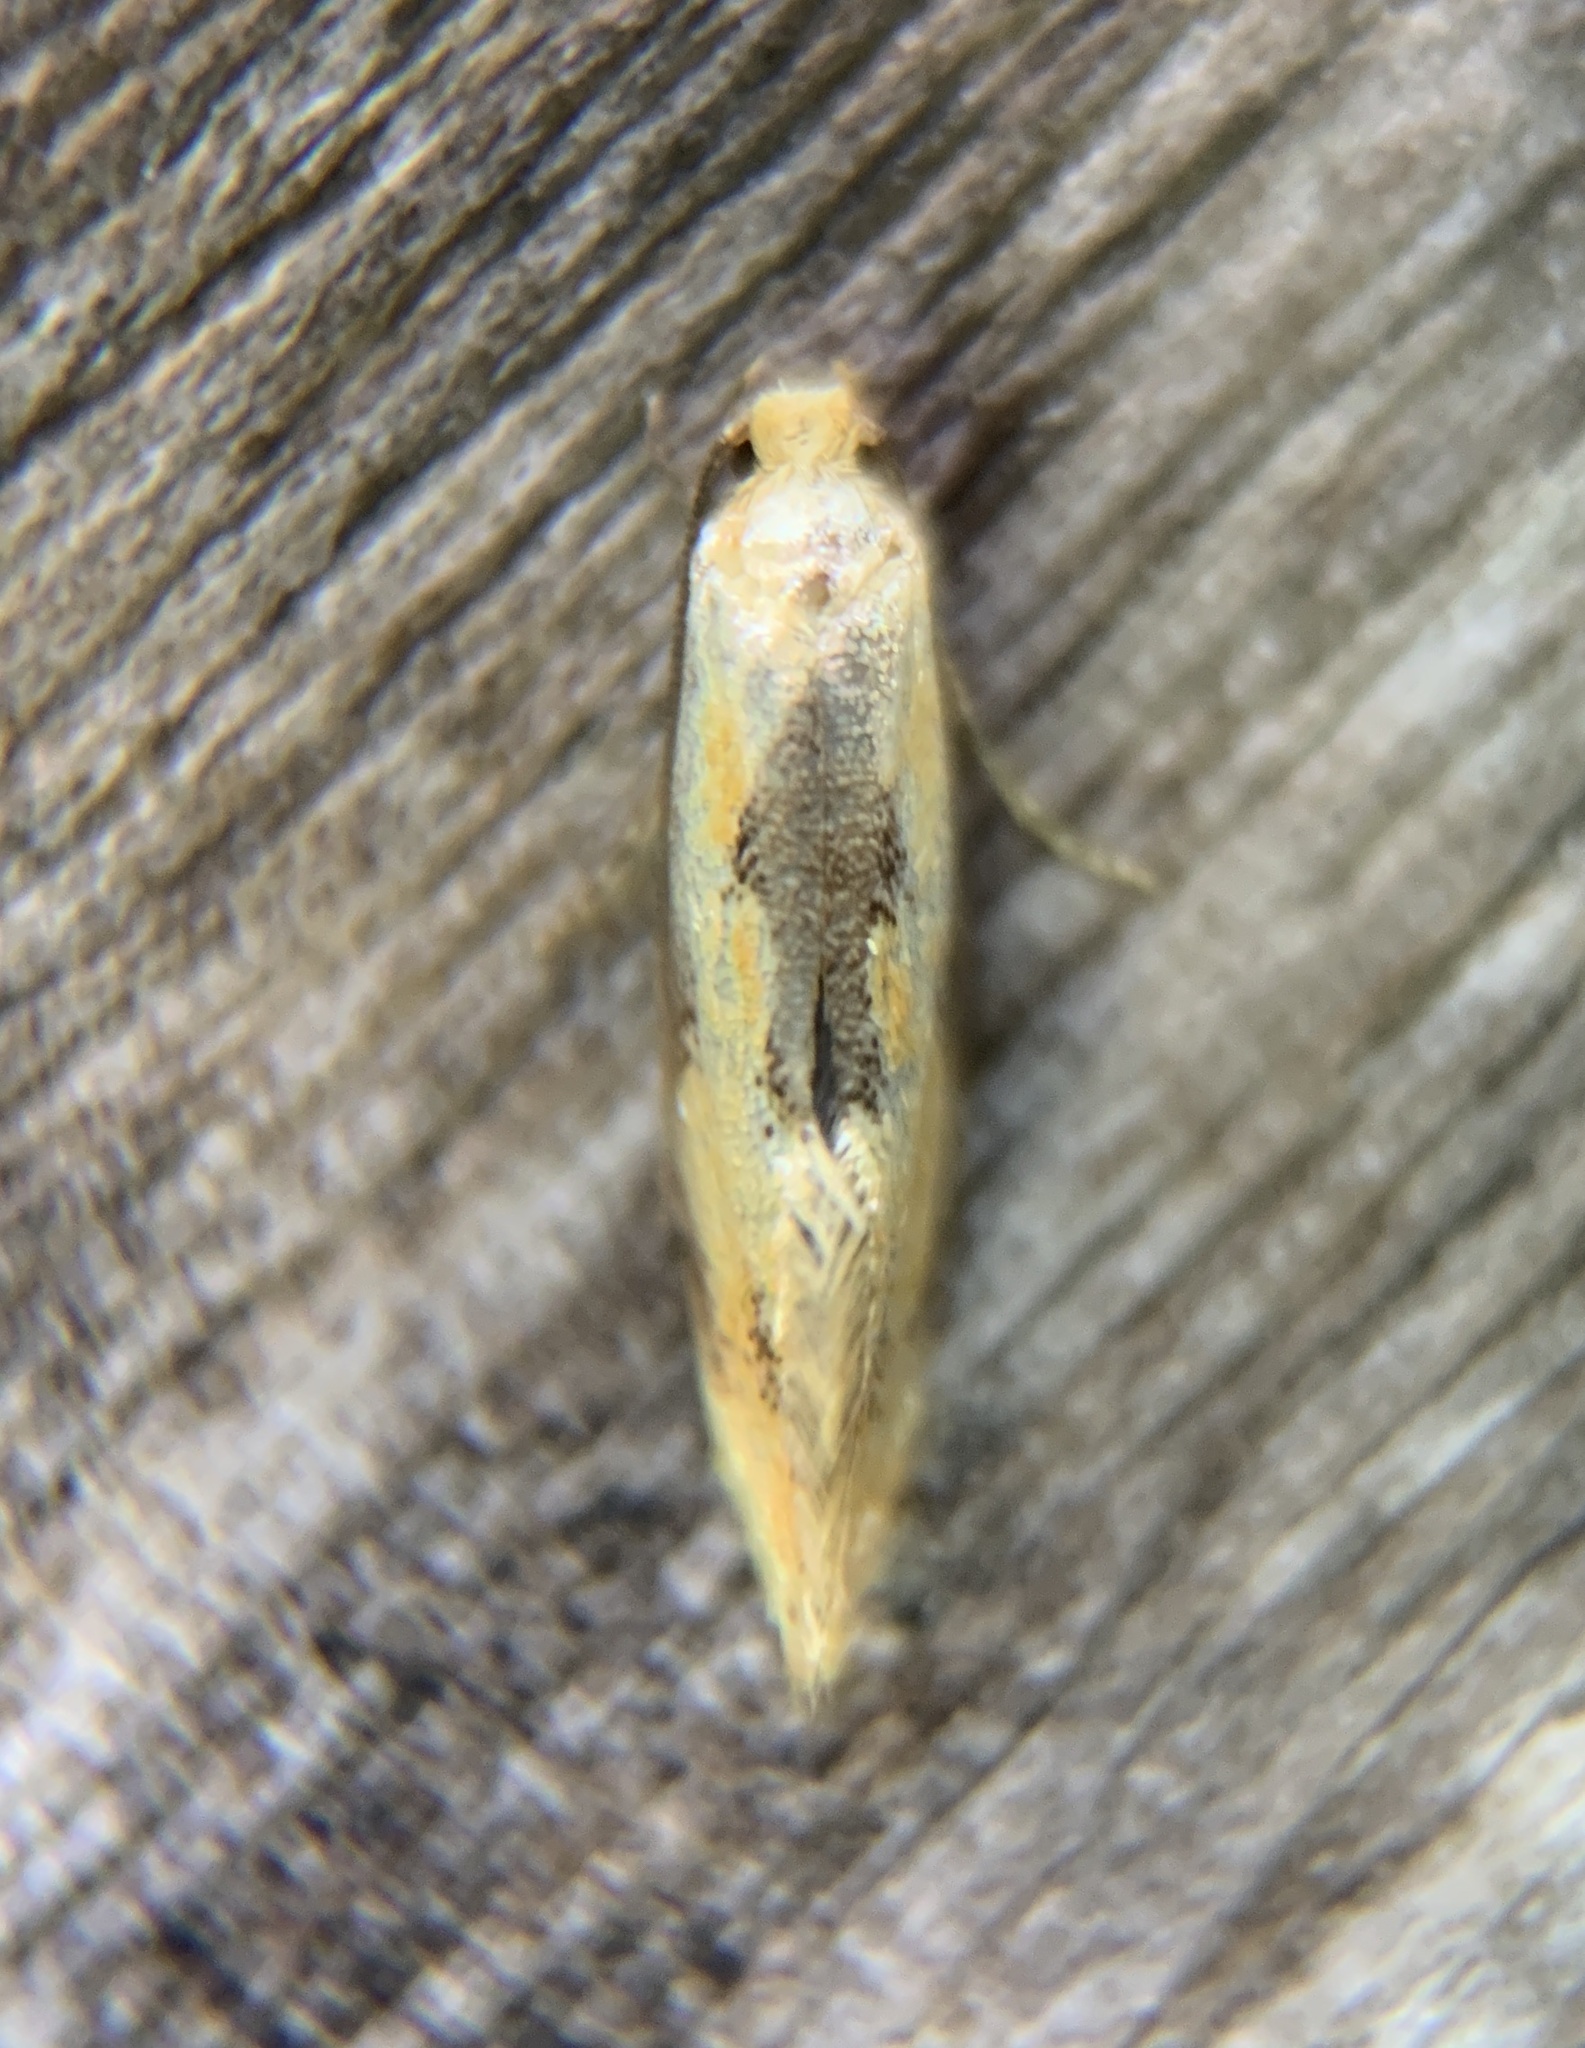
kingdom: Animalia
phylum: Arthropoda
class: Insecta
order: Lepidoptera
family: Meessiidae
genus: Hybroma
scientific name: Hybroma servulella
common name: Yellow wave moth
